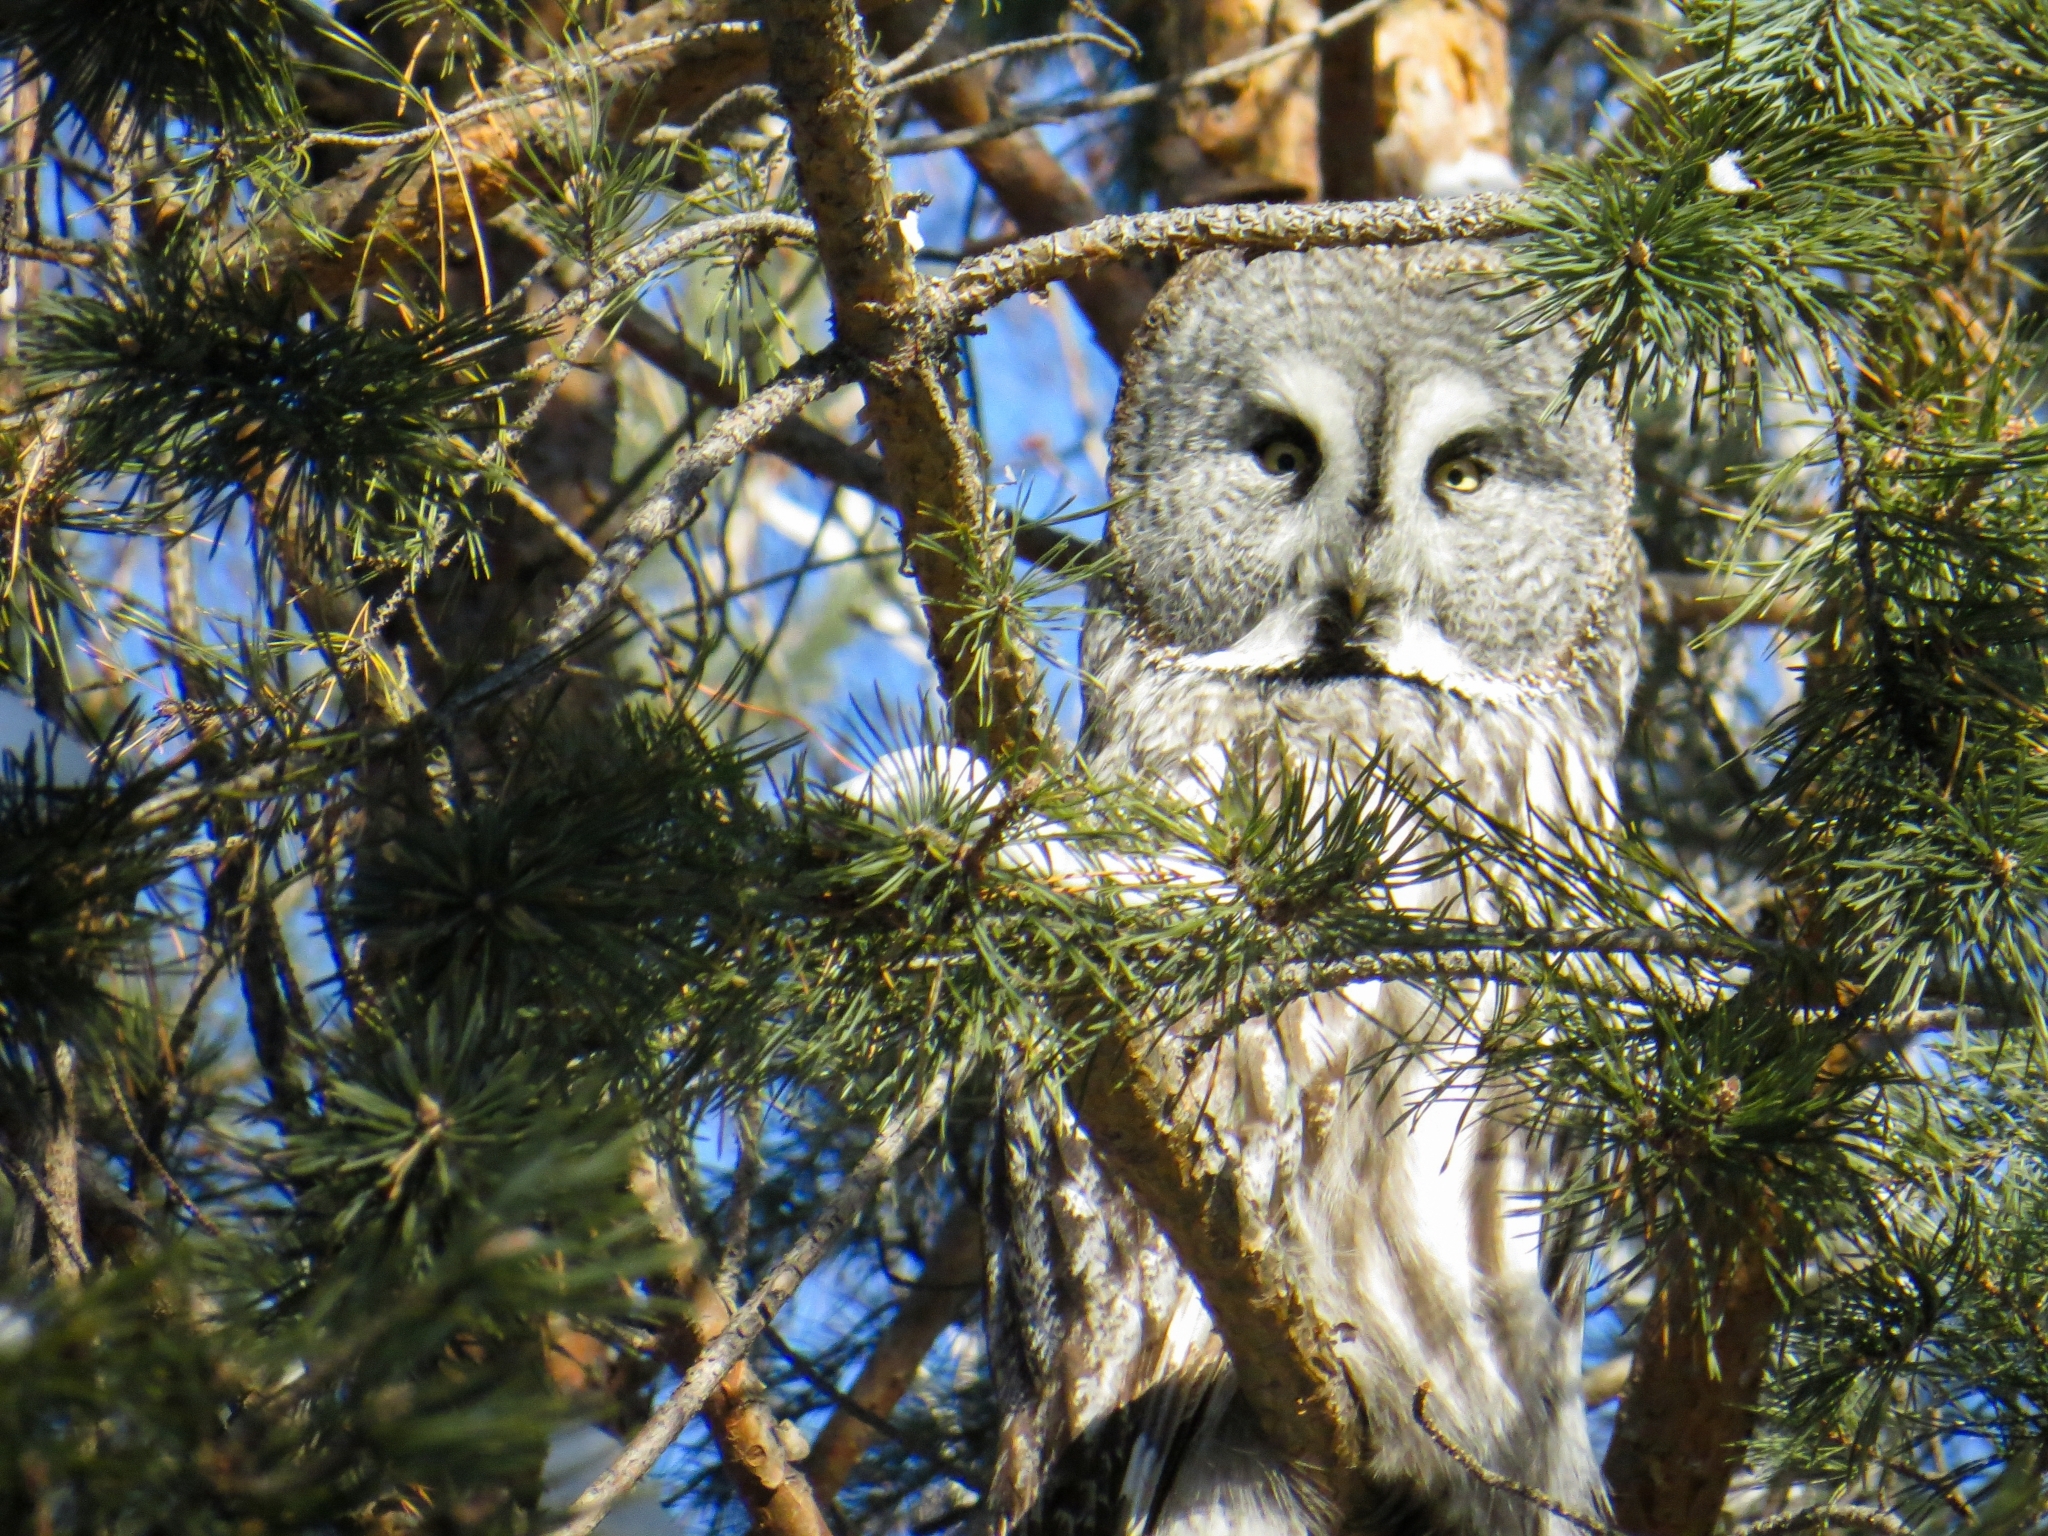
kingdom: Animalia
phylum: Chordata
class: Aves
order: Strigiformes
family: Strigidae
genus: Strix
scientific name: Strix nebulosa
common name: Great grey owl
